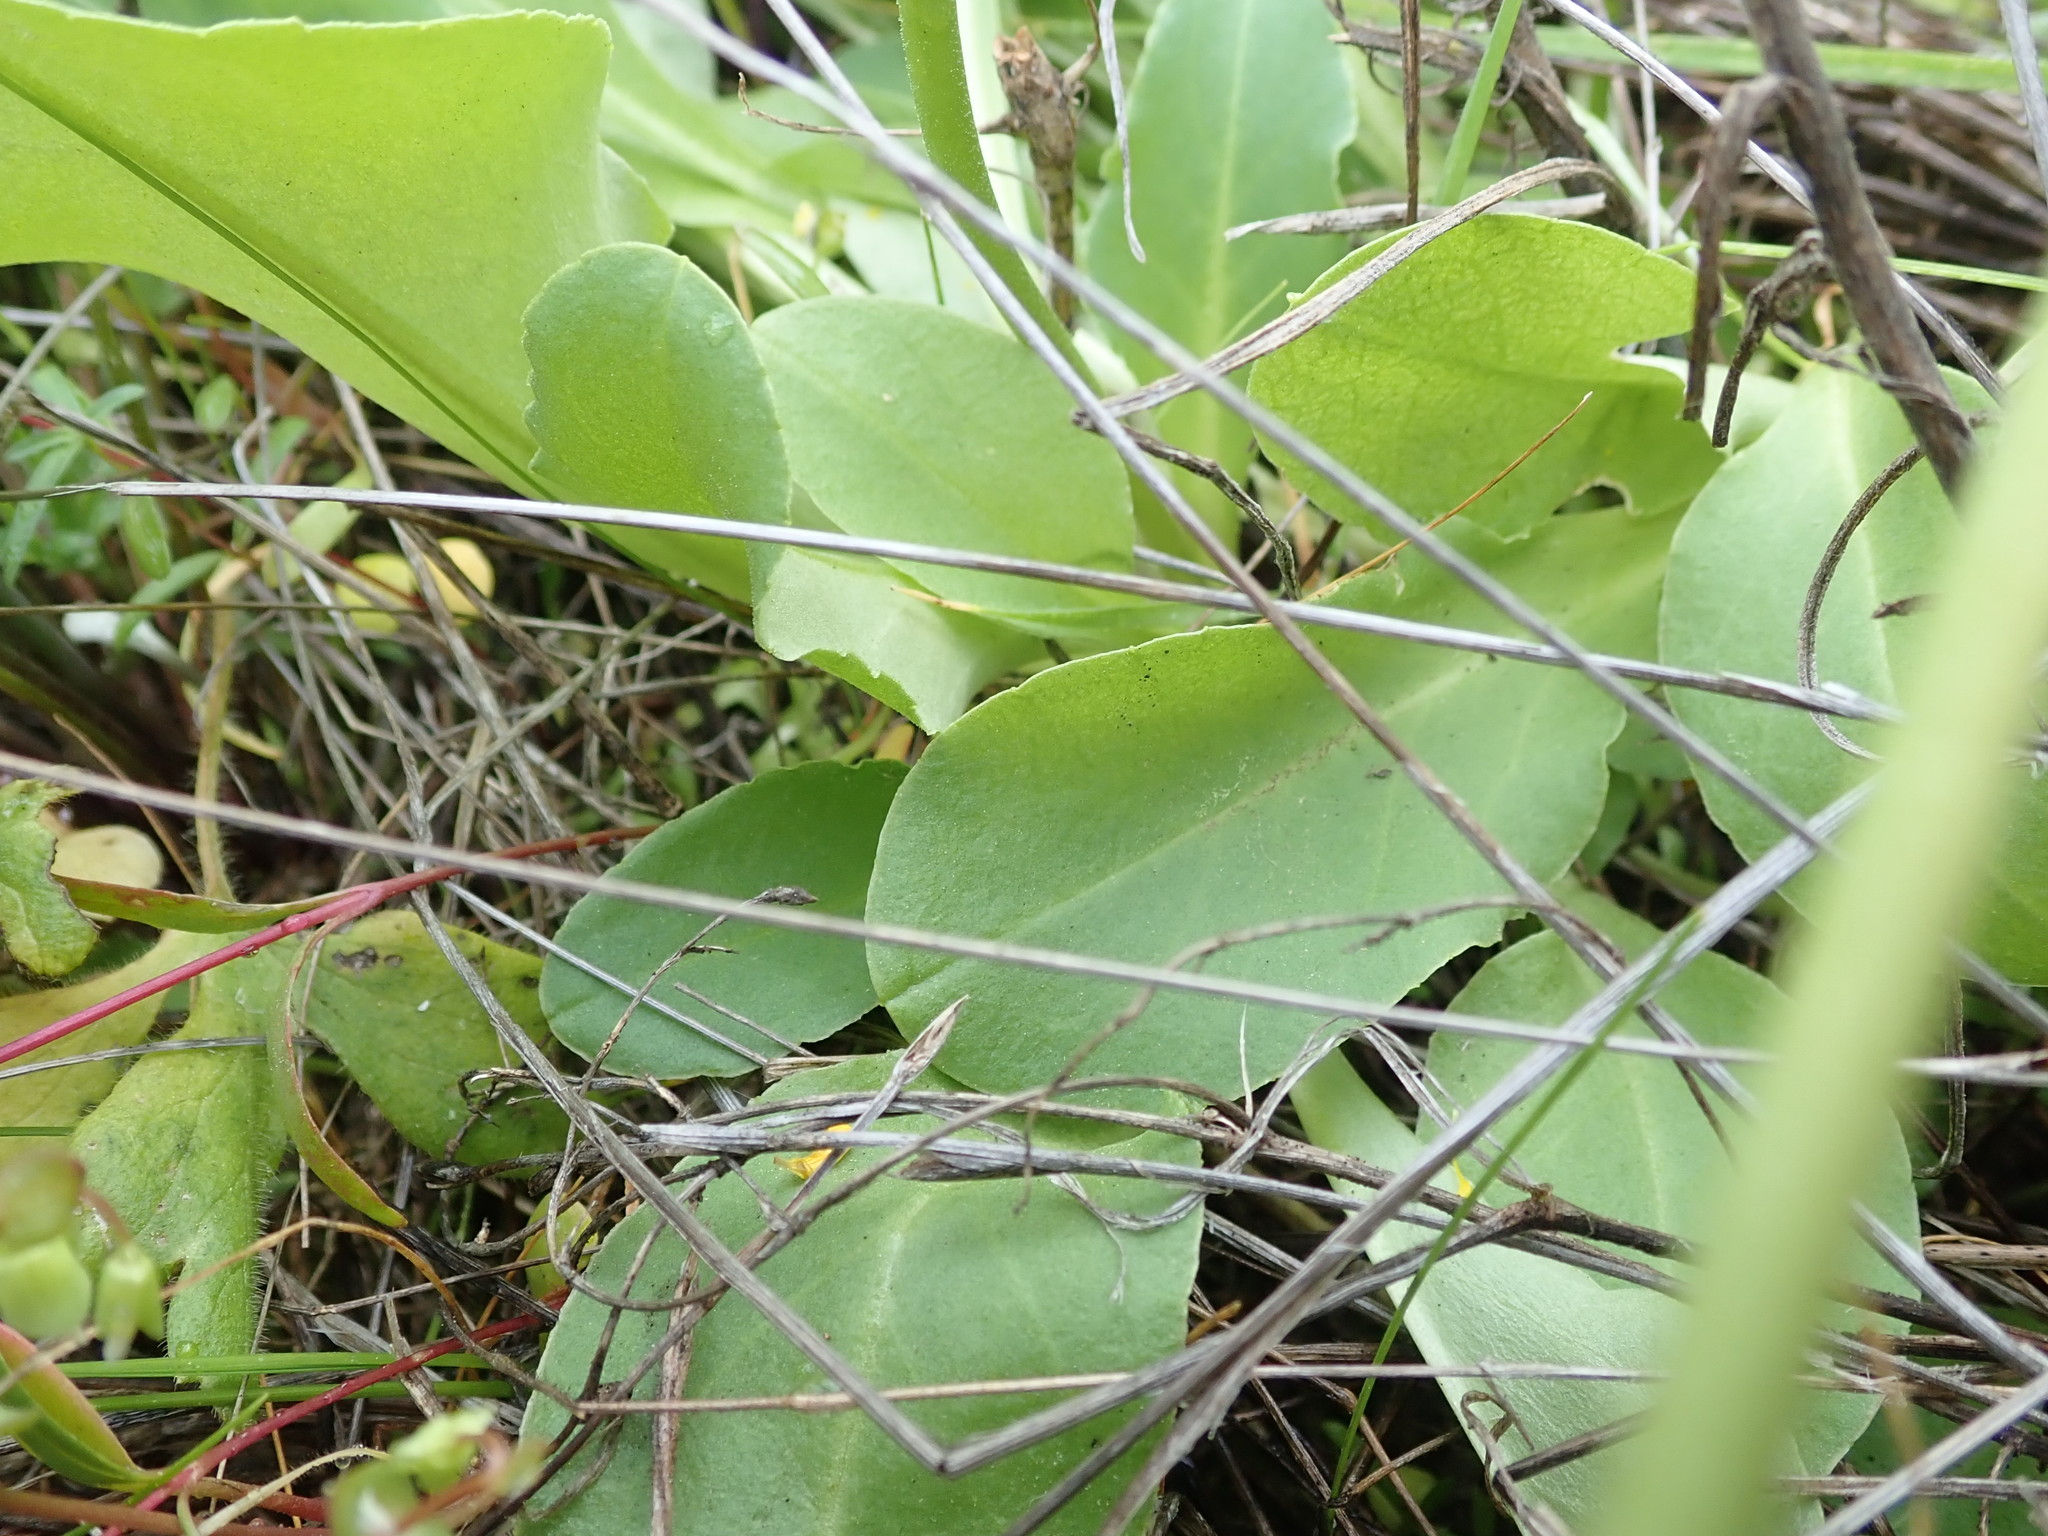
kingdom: Plantae
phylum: Tracheophyta
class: Magnoliopsida
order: Ericales
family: Primulaceae
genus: Dodecatheon
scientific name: Dodecatheon hendersonii
